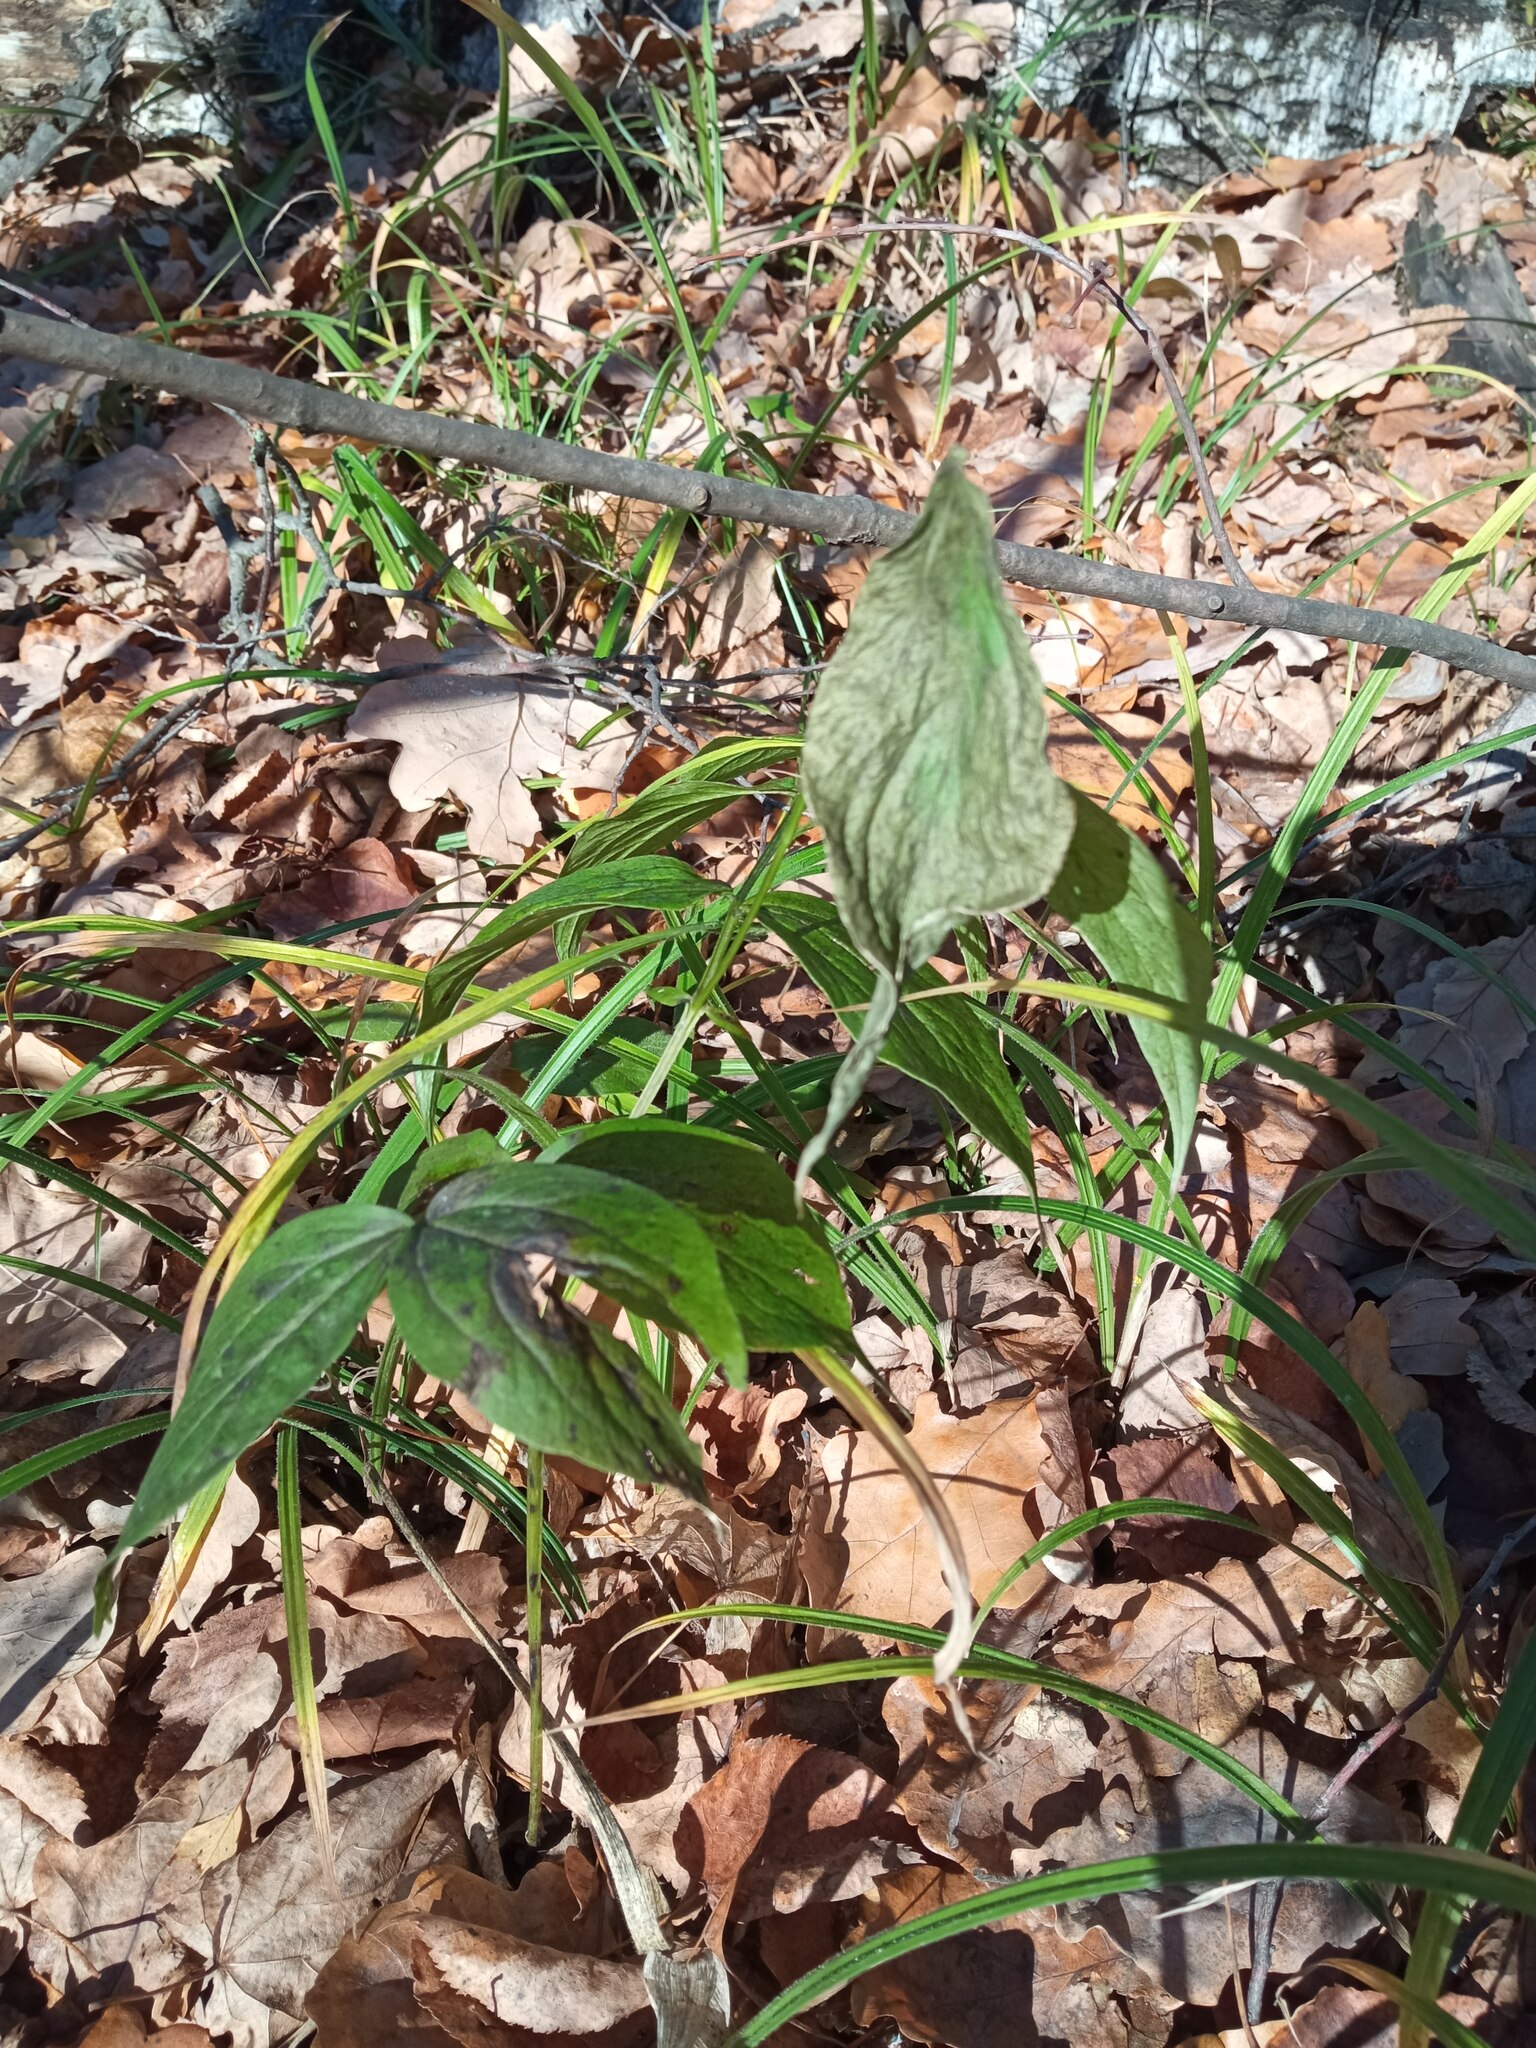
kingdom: Plantae
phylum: Tracheophyta
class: Magnoliopsida
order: Fabales
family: Fabaceae
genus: Lathyrus
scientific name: Lathyrus vernus
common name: Spring pea
